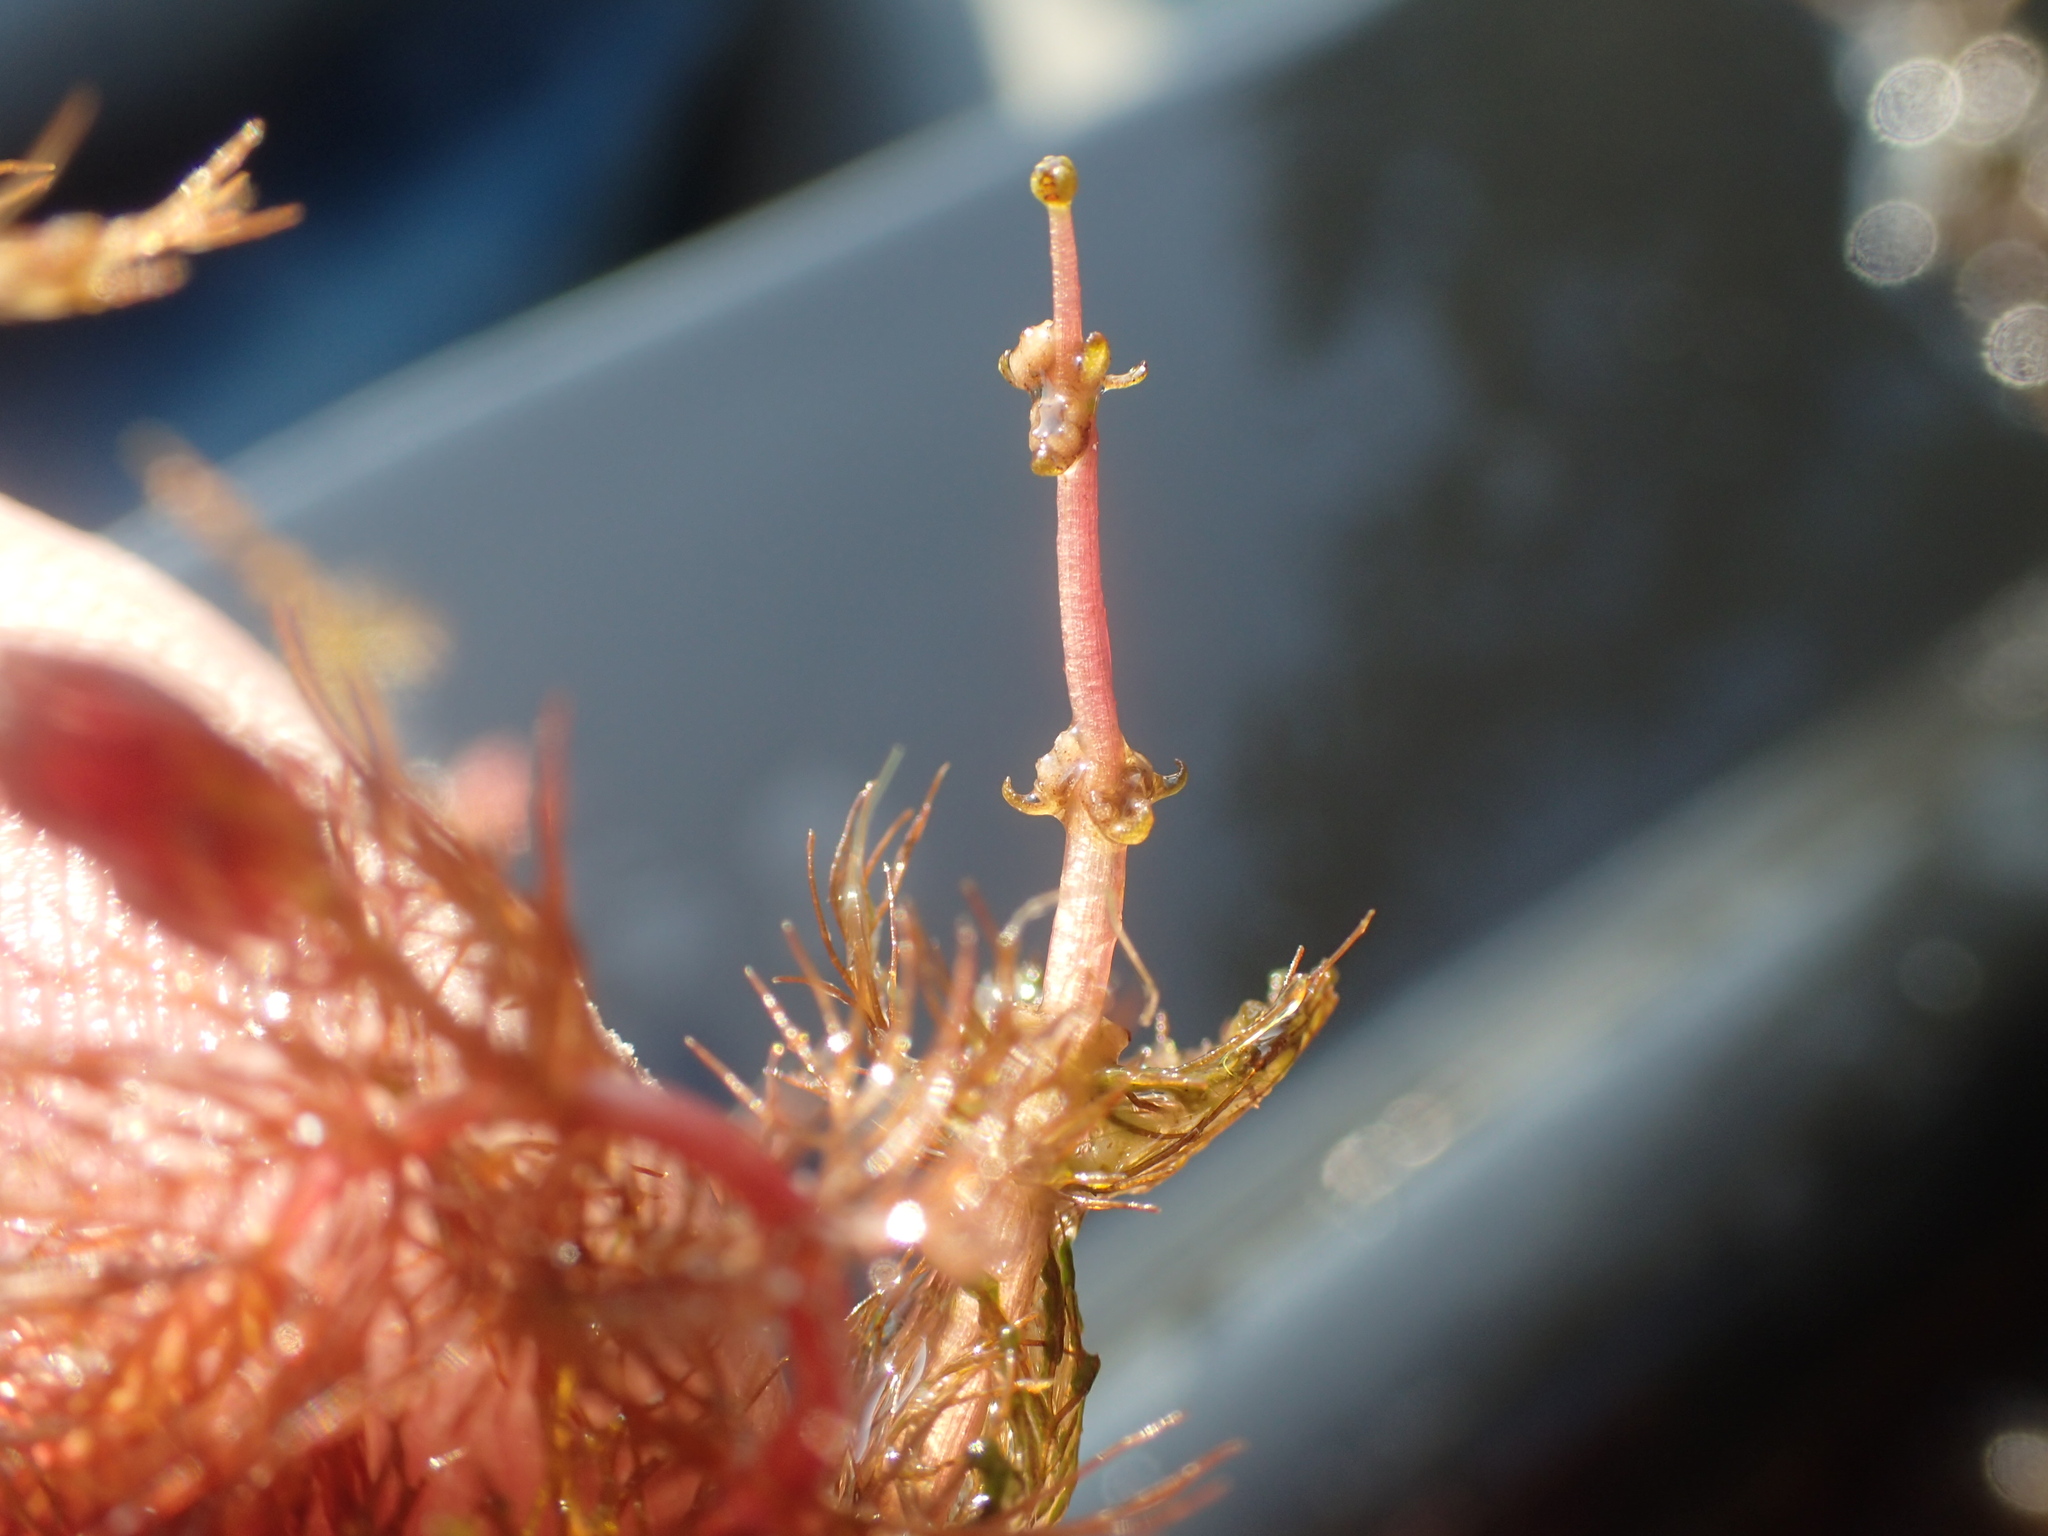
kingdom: Plantae
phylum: Tracheophyta
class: Magnoliopsida
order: Saxifragales
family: Haloragaceae
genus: Myriophyllum
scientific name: Myriophyllum alterniflorum
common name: Alternate water-milfoil
